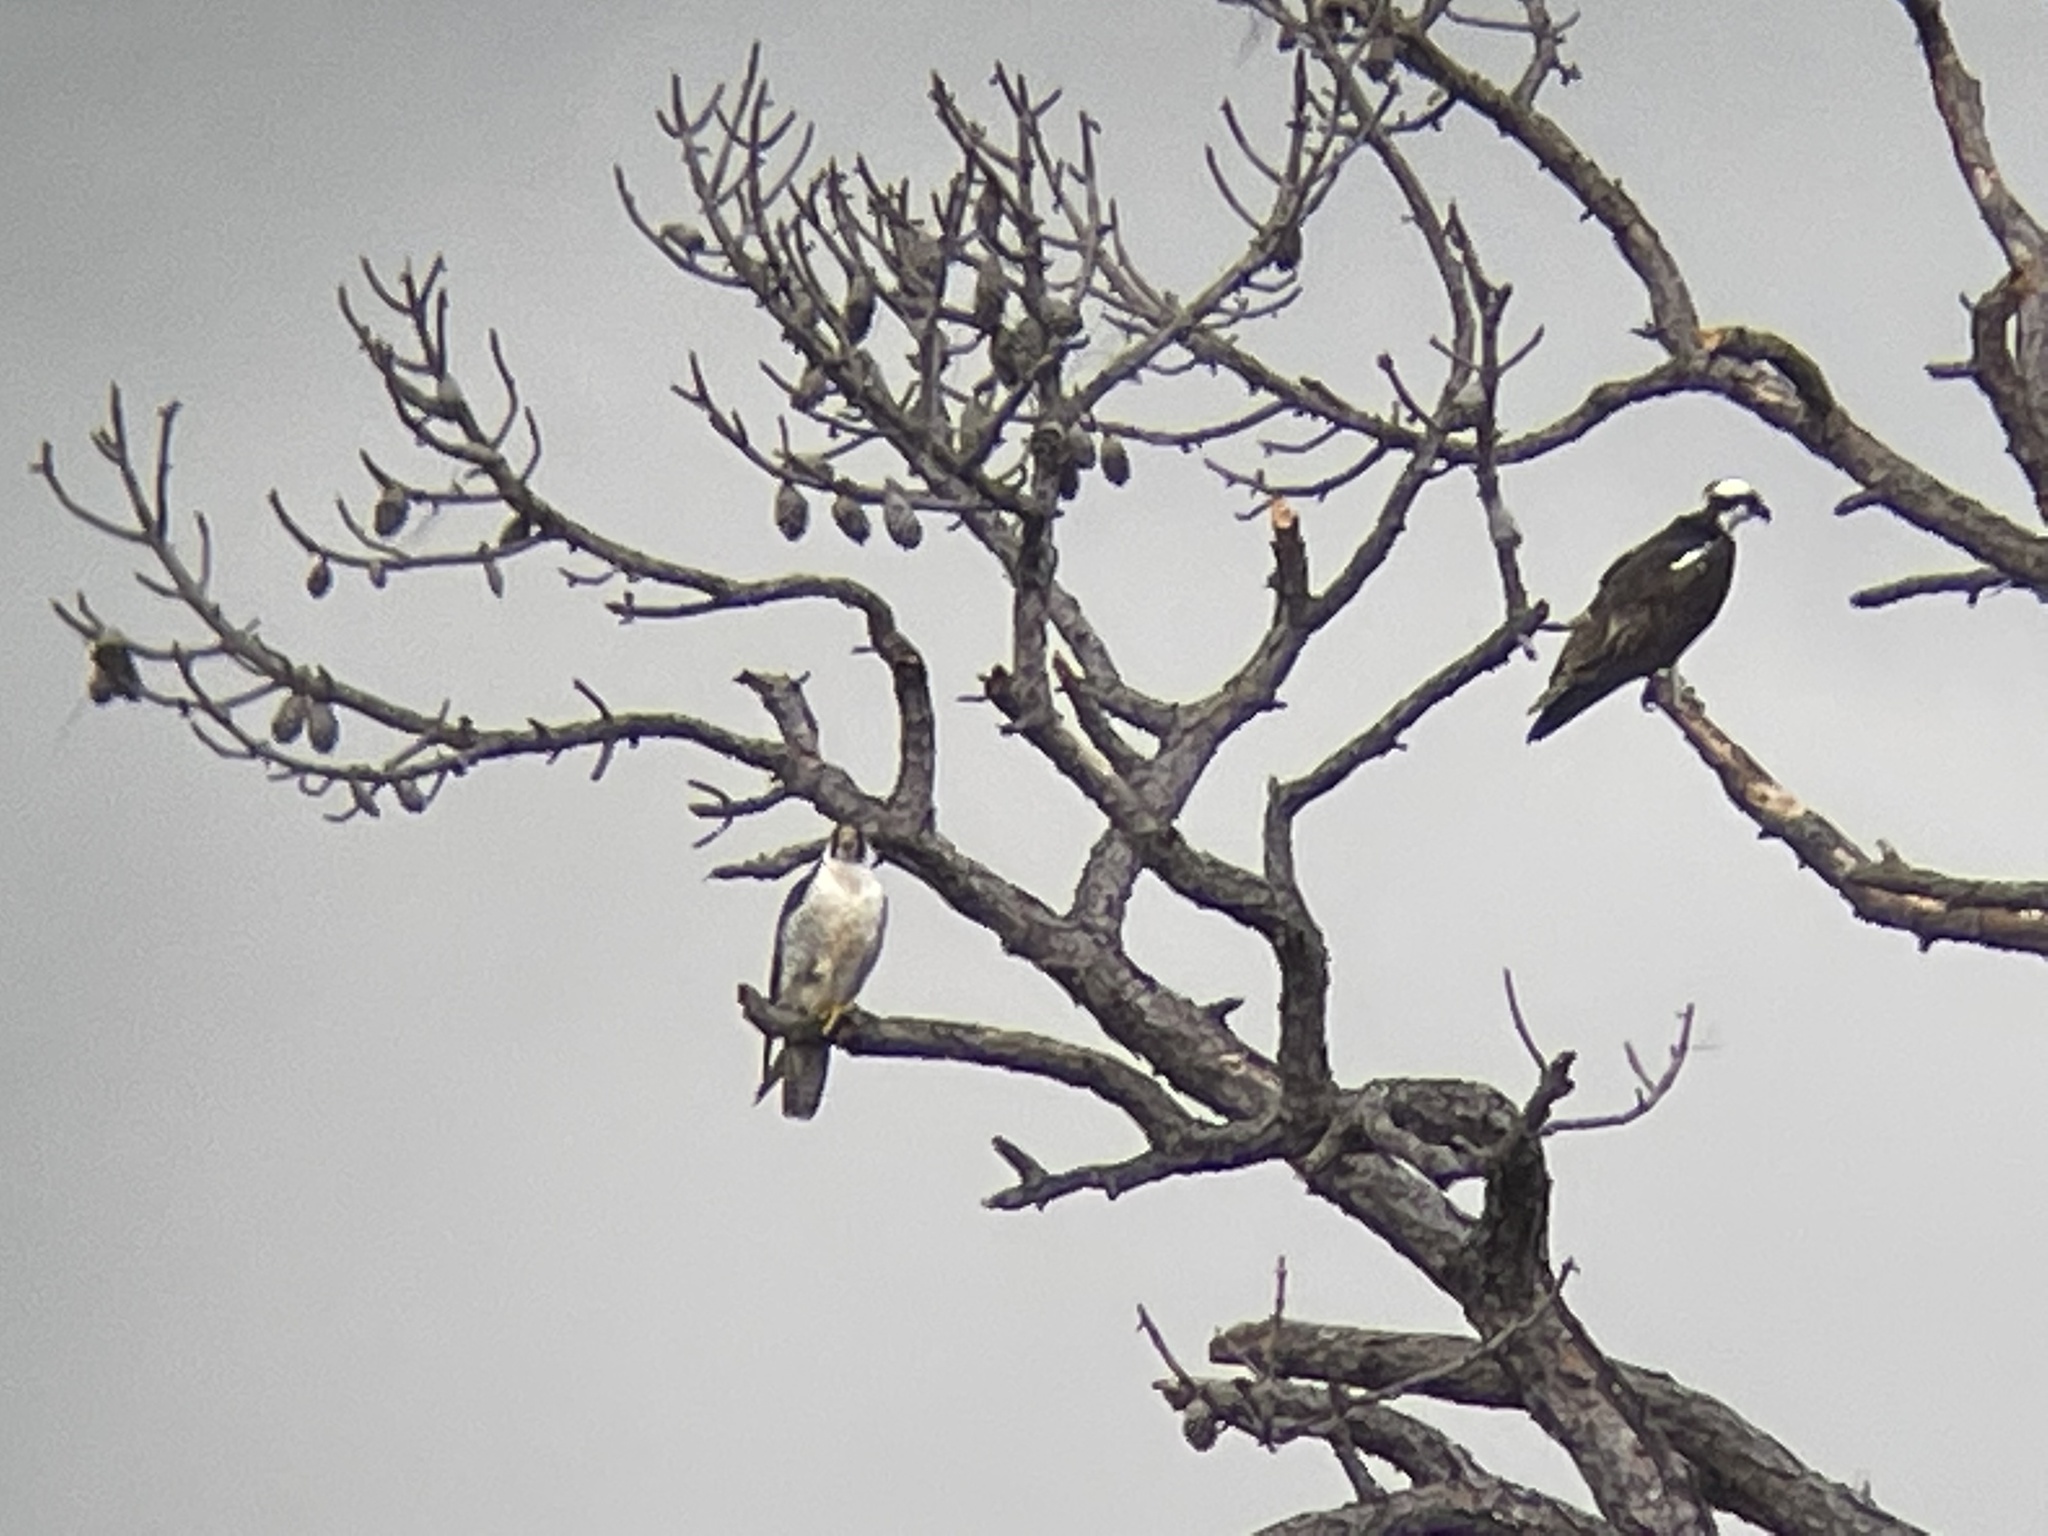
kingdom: Animalia
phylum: Chordata
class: Aves
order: Accipitriformes
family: Pandionidae
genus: Pandion
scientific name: Pandion haliaetus
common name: Osprey
